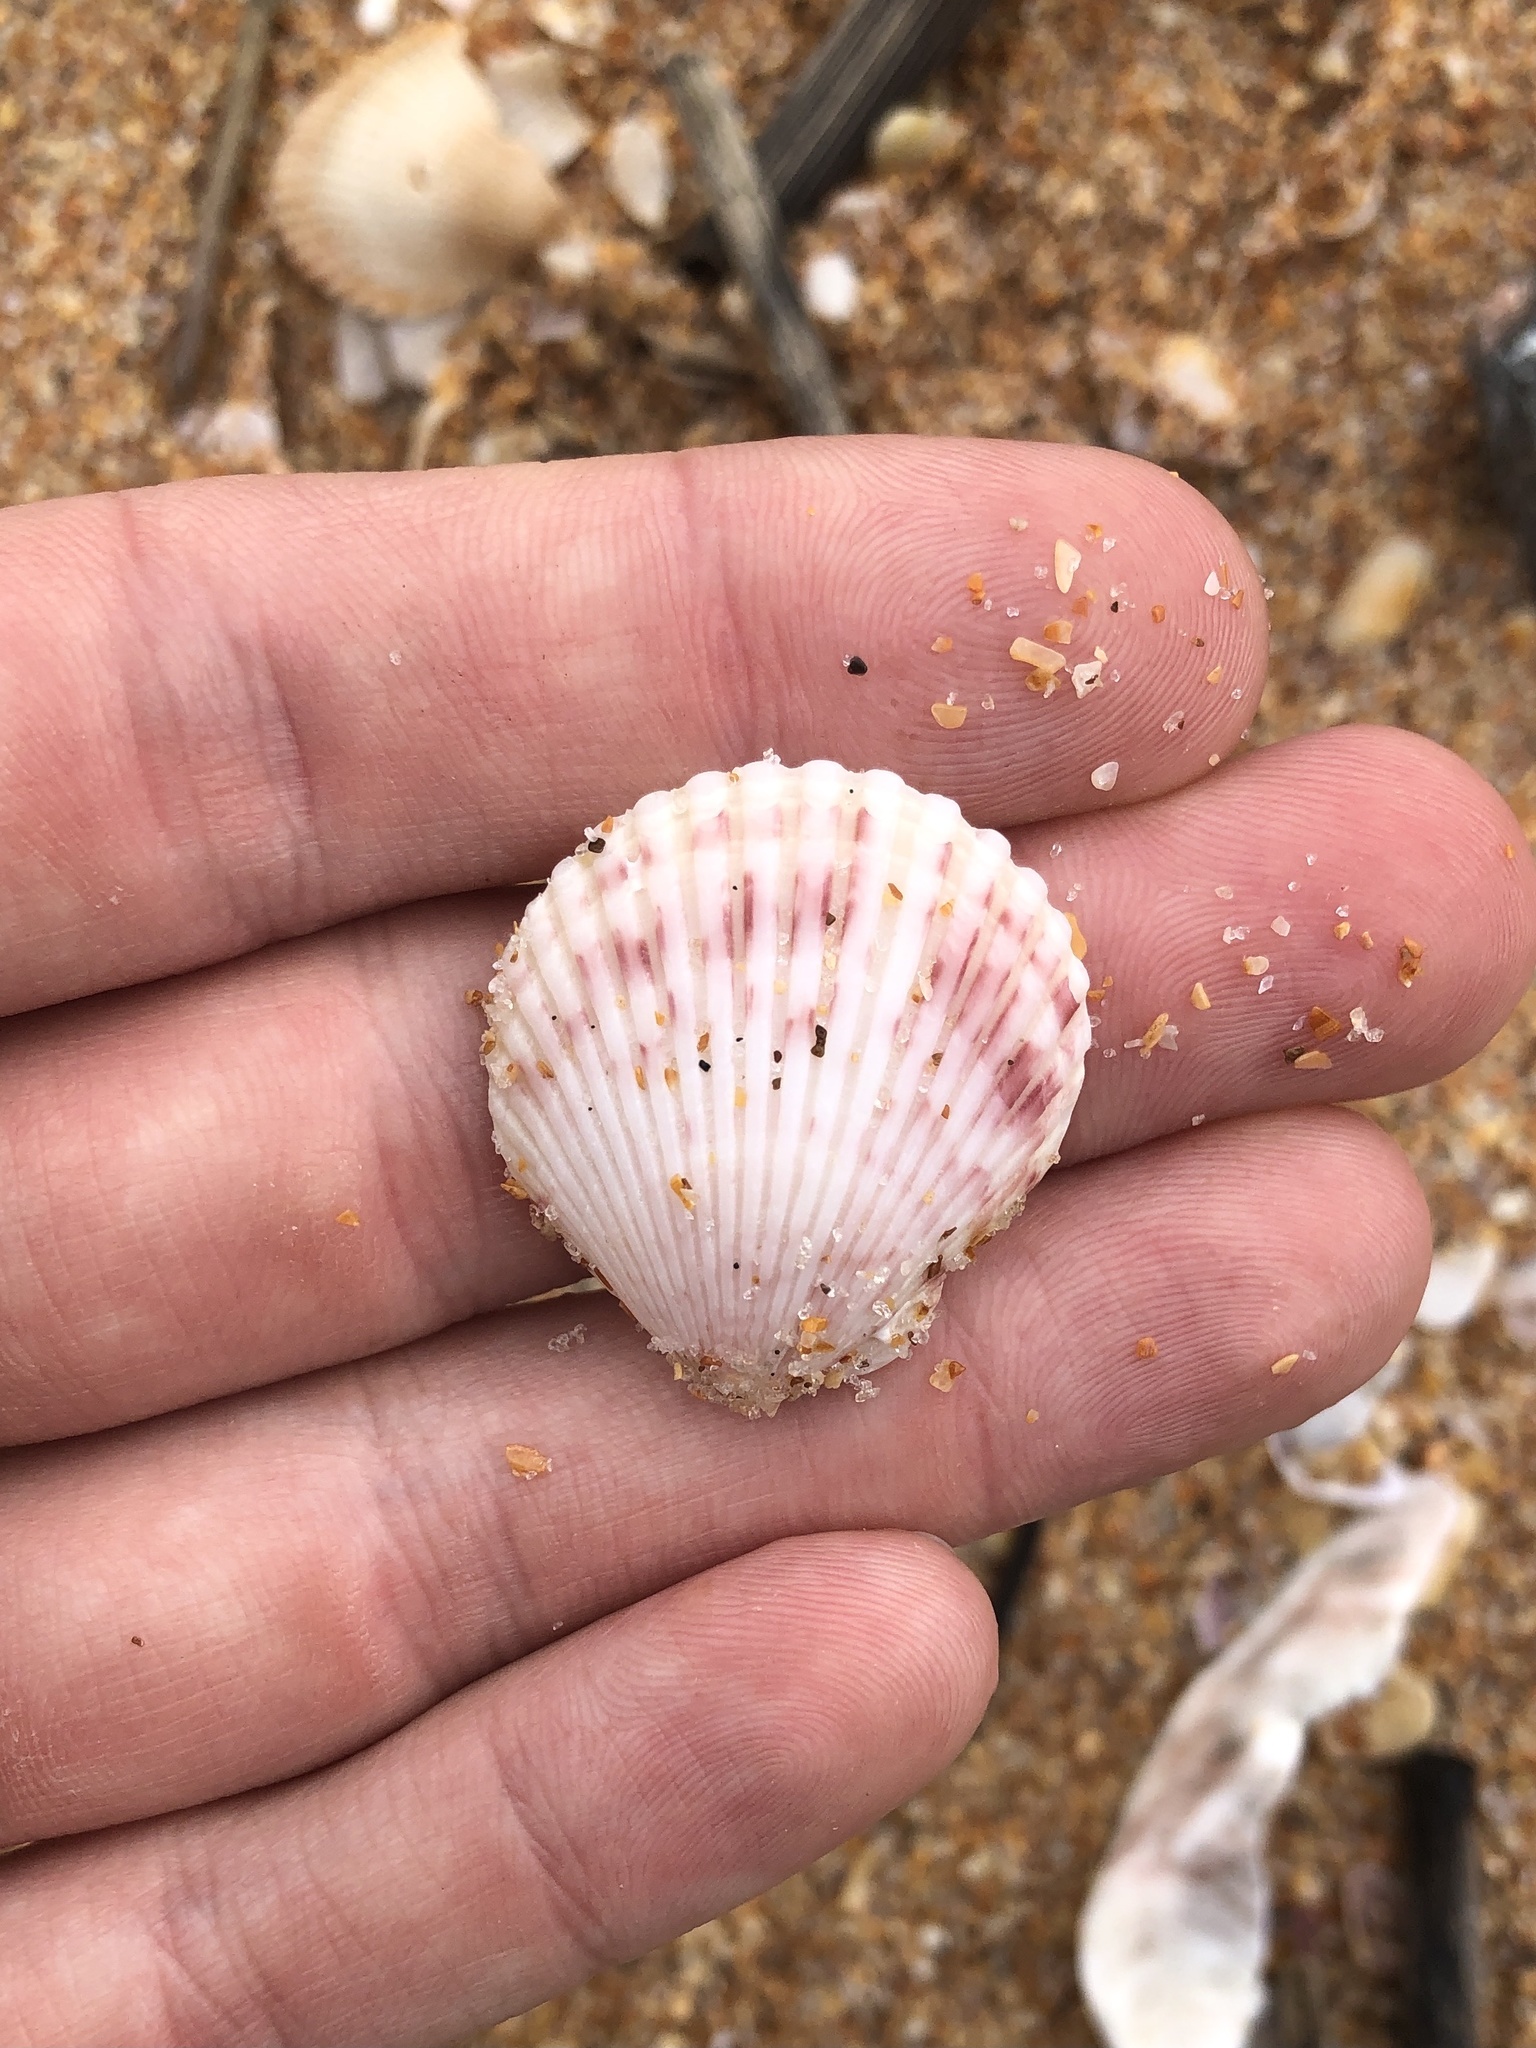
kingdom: Animalia
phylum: Mollusca
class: Bivalvia
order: Pectinida
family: Pectinidae
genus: Argopecten
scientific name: Argopecten gibbus
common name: Atlantic calico scallop
